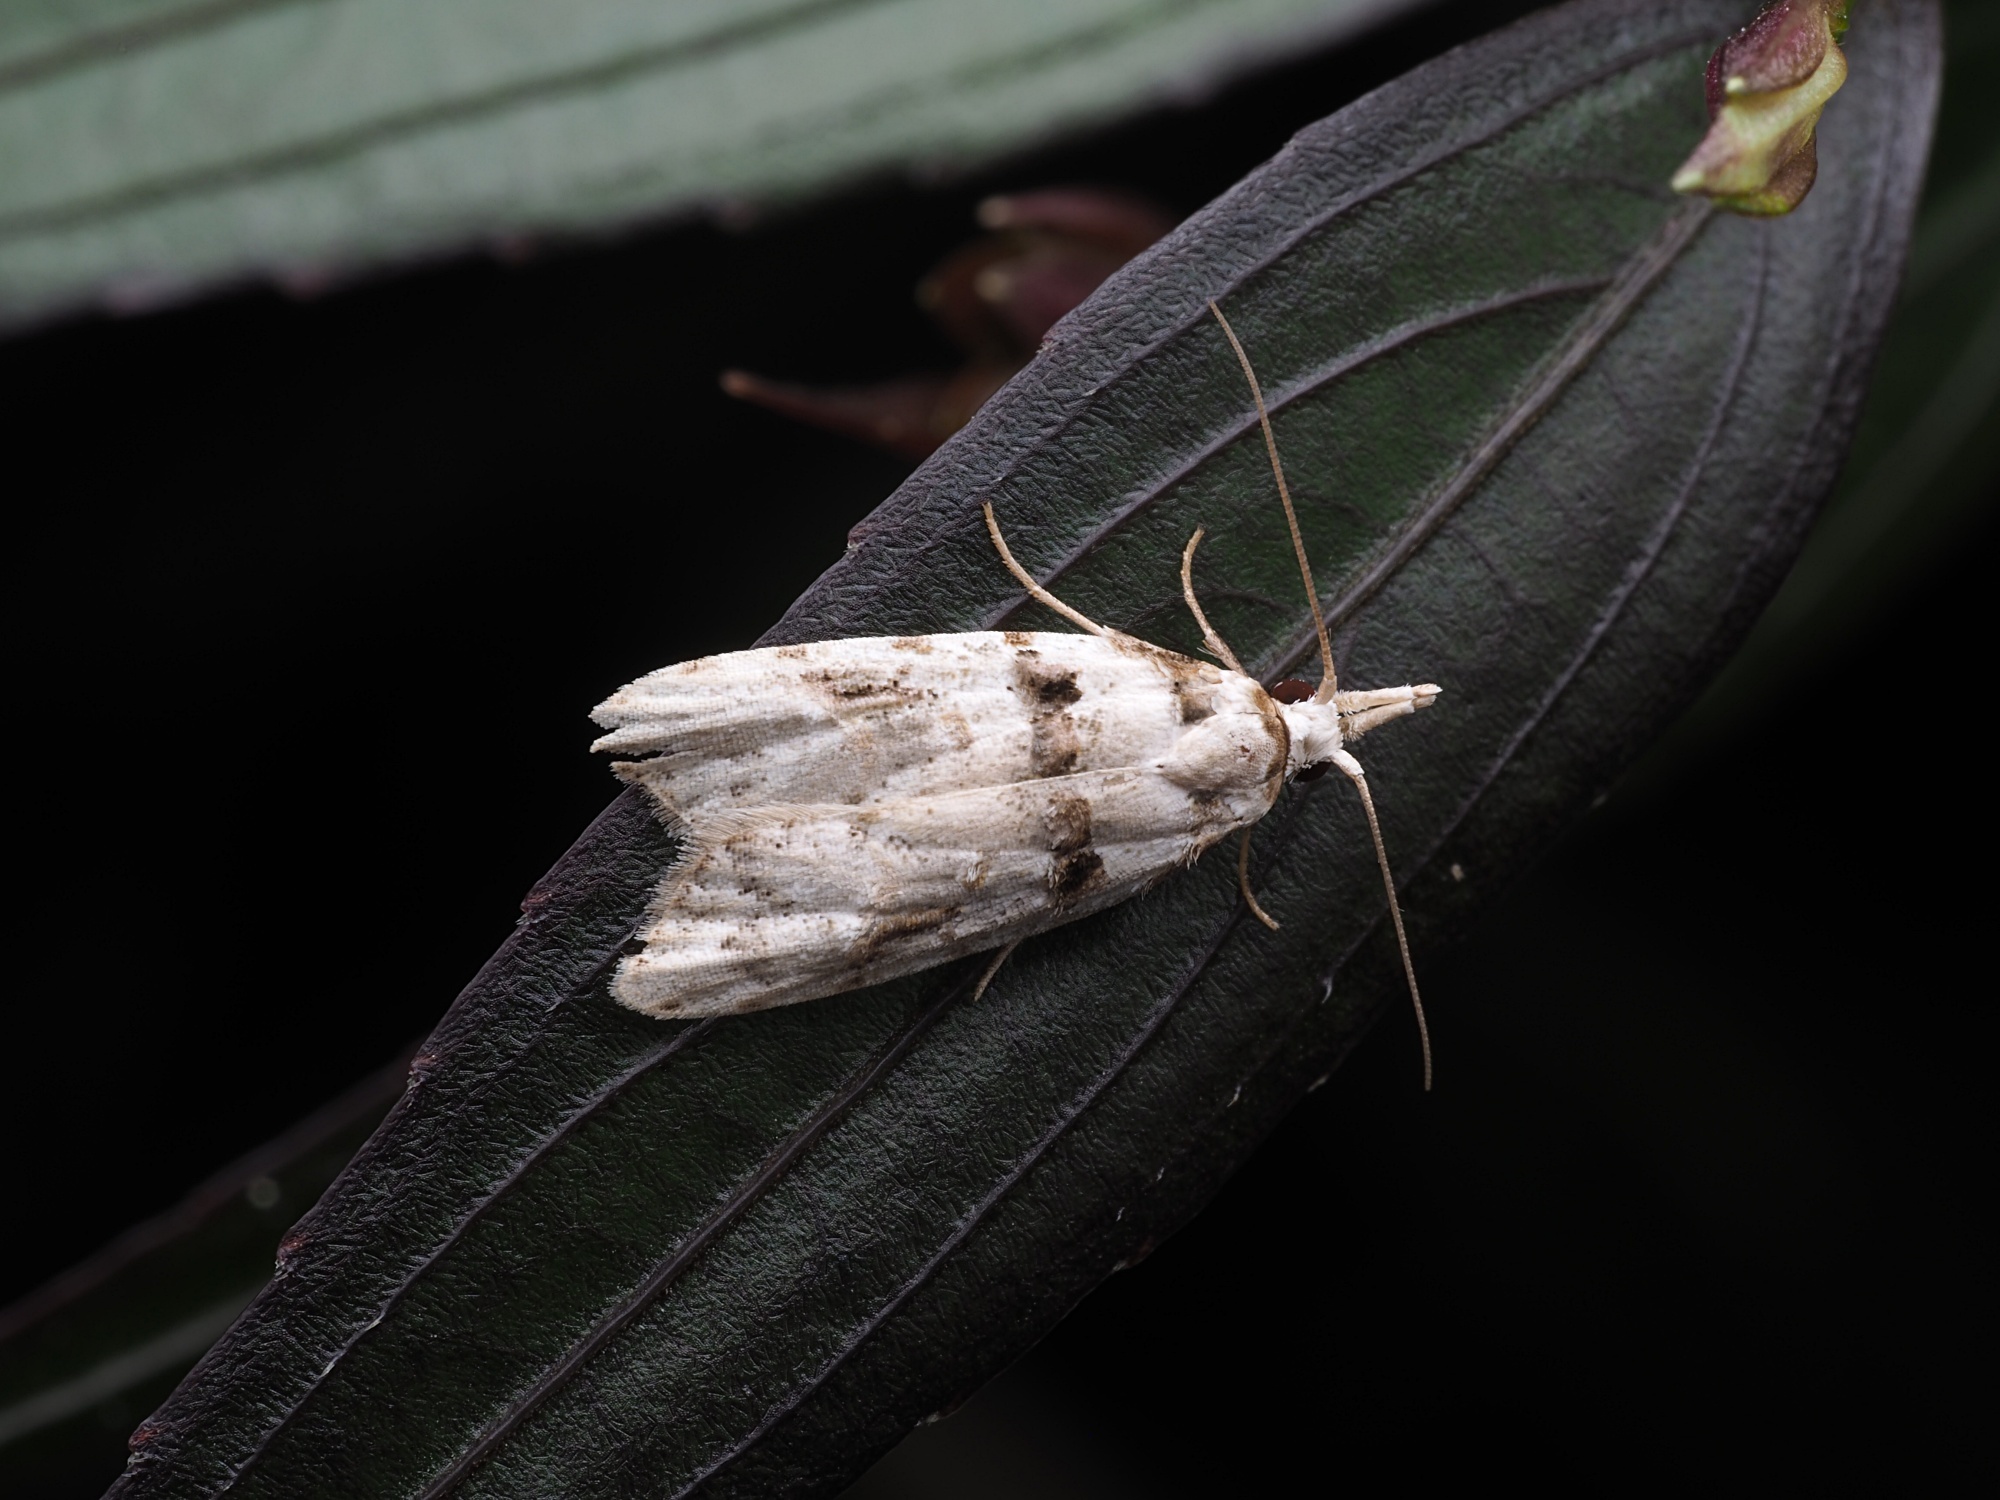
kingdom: Animalia
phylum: Arthropoda
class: Insecta
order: Lepidoptera
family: Carposinidae
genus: Coscinoptycha
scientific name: Coscinoptycha improbana
